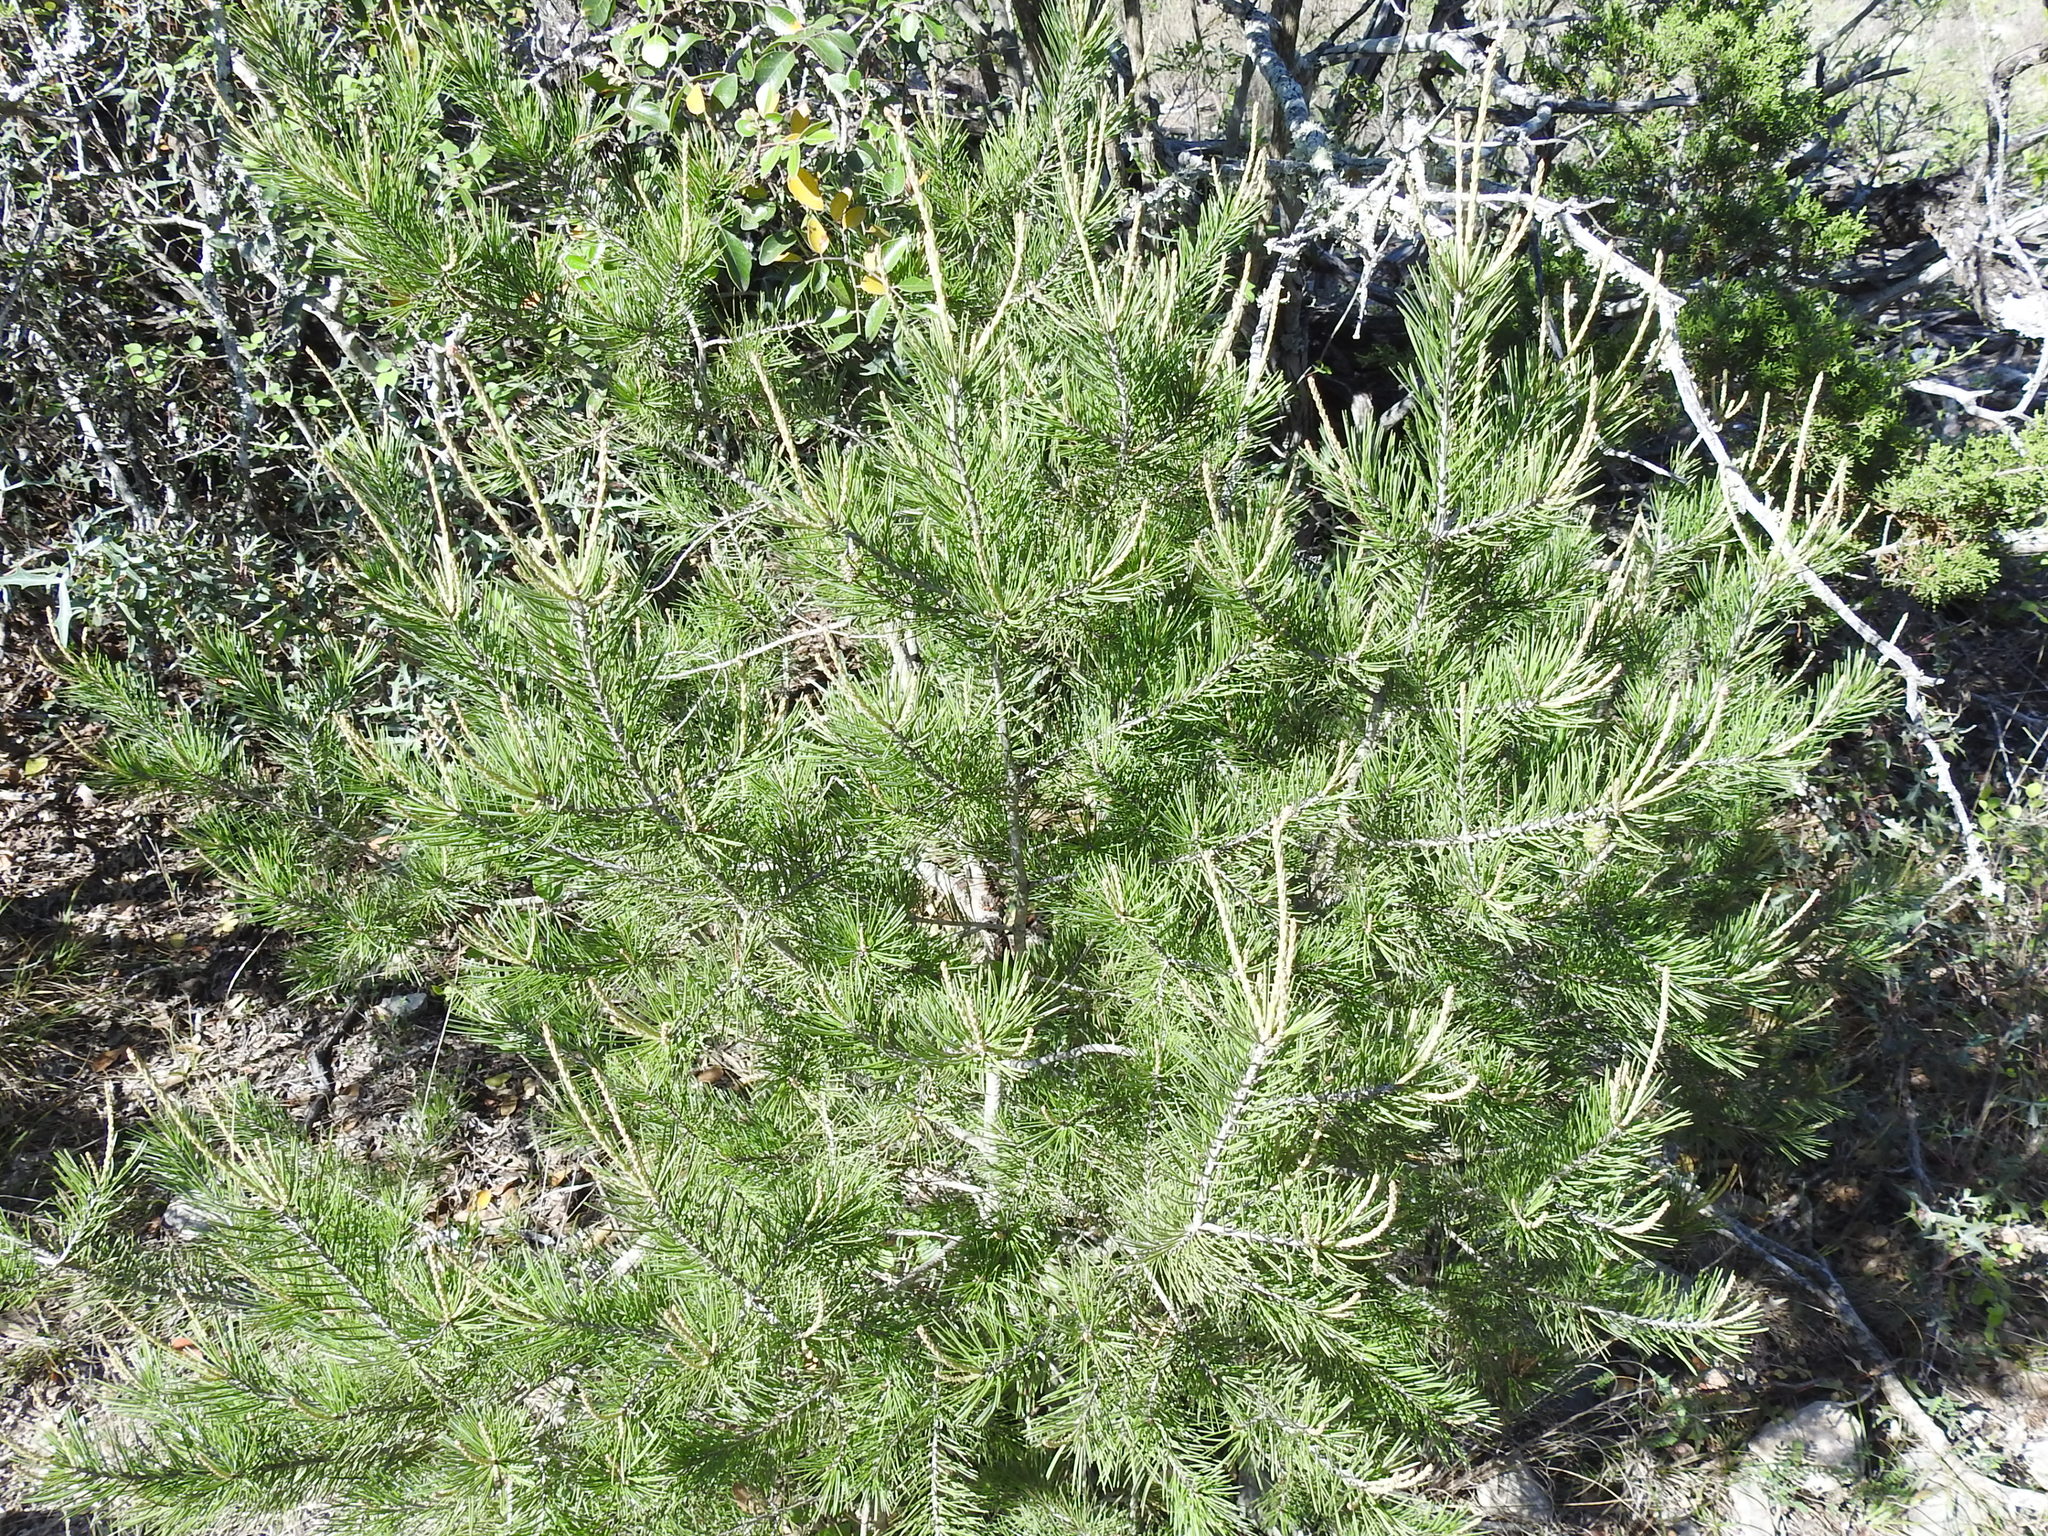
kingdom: Plantae
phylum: Tracheophyta
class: Pinopsida
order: Pinales
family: Pinaceae
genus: Pinus
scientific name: Pinus remota
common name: Nut pine
